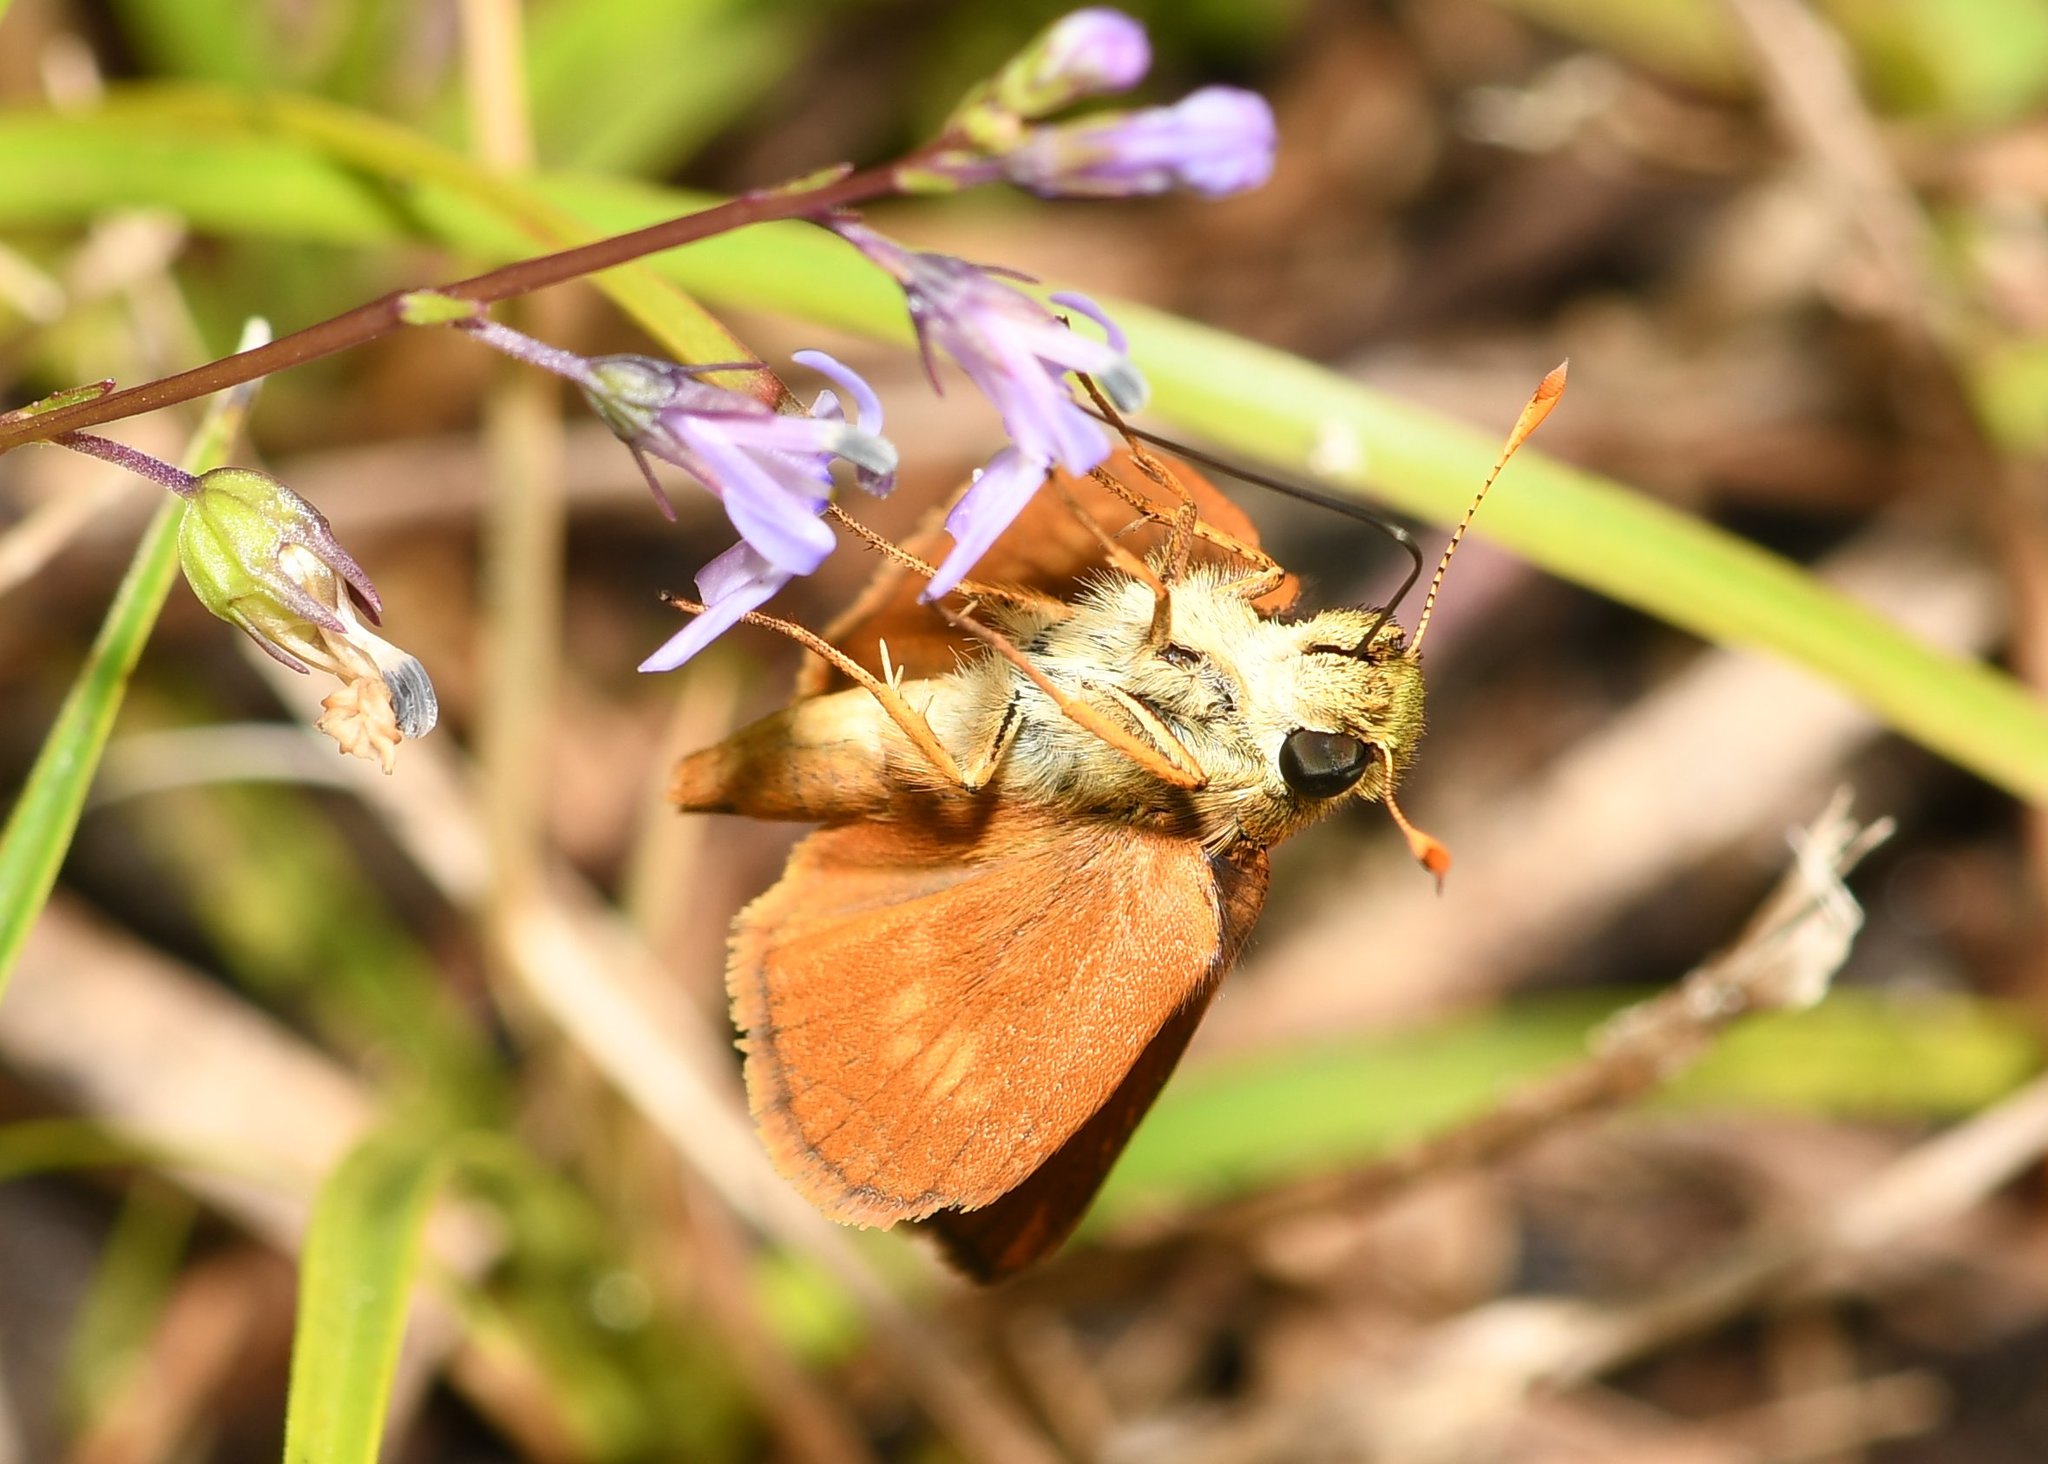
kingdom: Animalia
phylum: Arthropoda
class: Insecta
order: Lepidoptera
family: Hesperiidae
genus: Polites
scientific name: Polites otho
